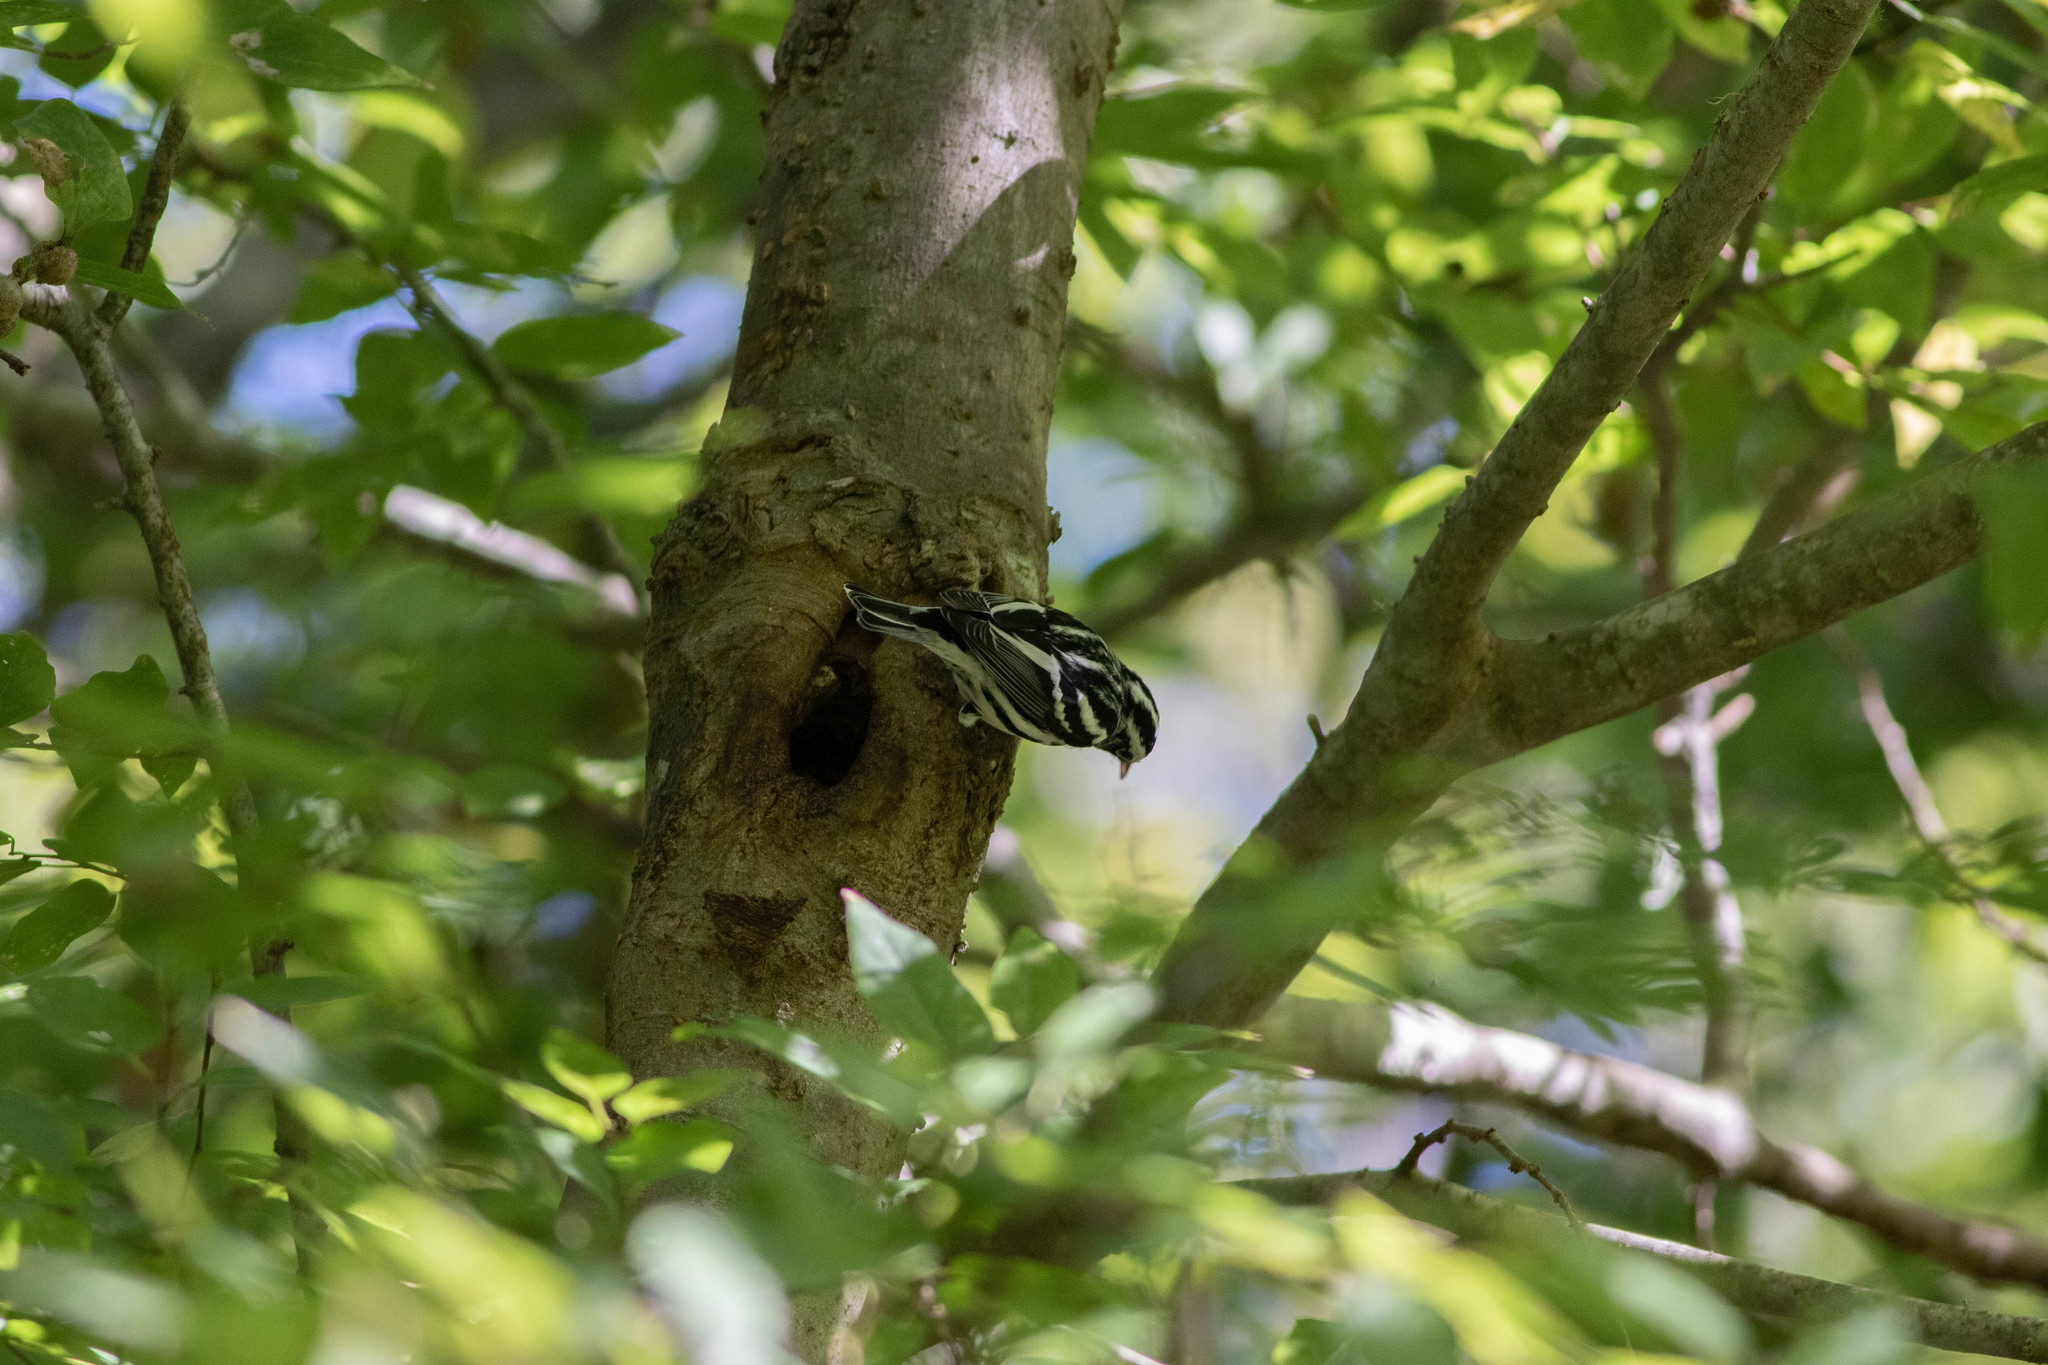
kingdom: Animalia
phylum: Chordata
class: Aves
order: Passeriformes
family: Parulidae
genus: Mniotilta
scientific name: Mniotilta varia
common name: Black-and-white warbler
